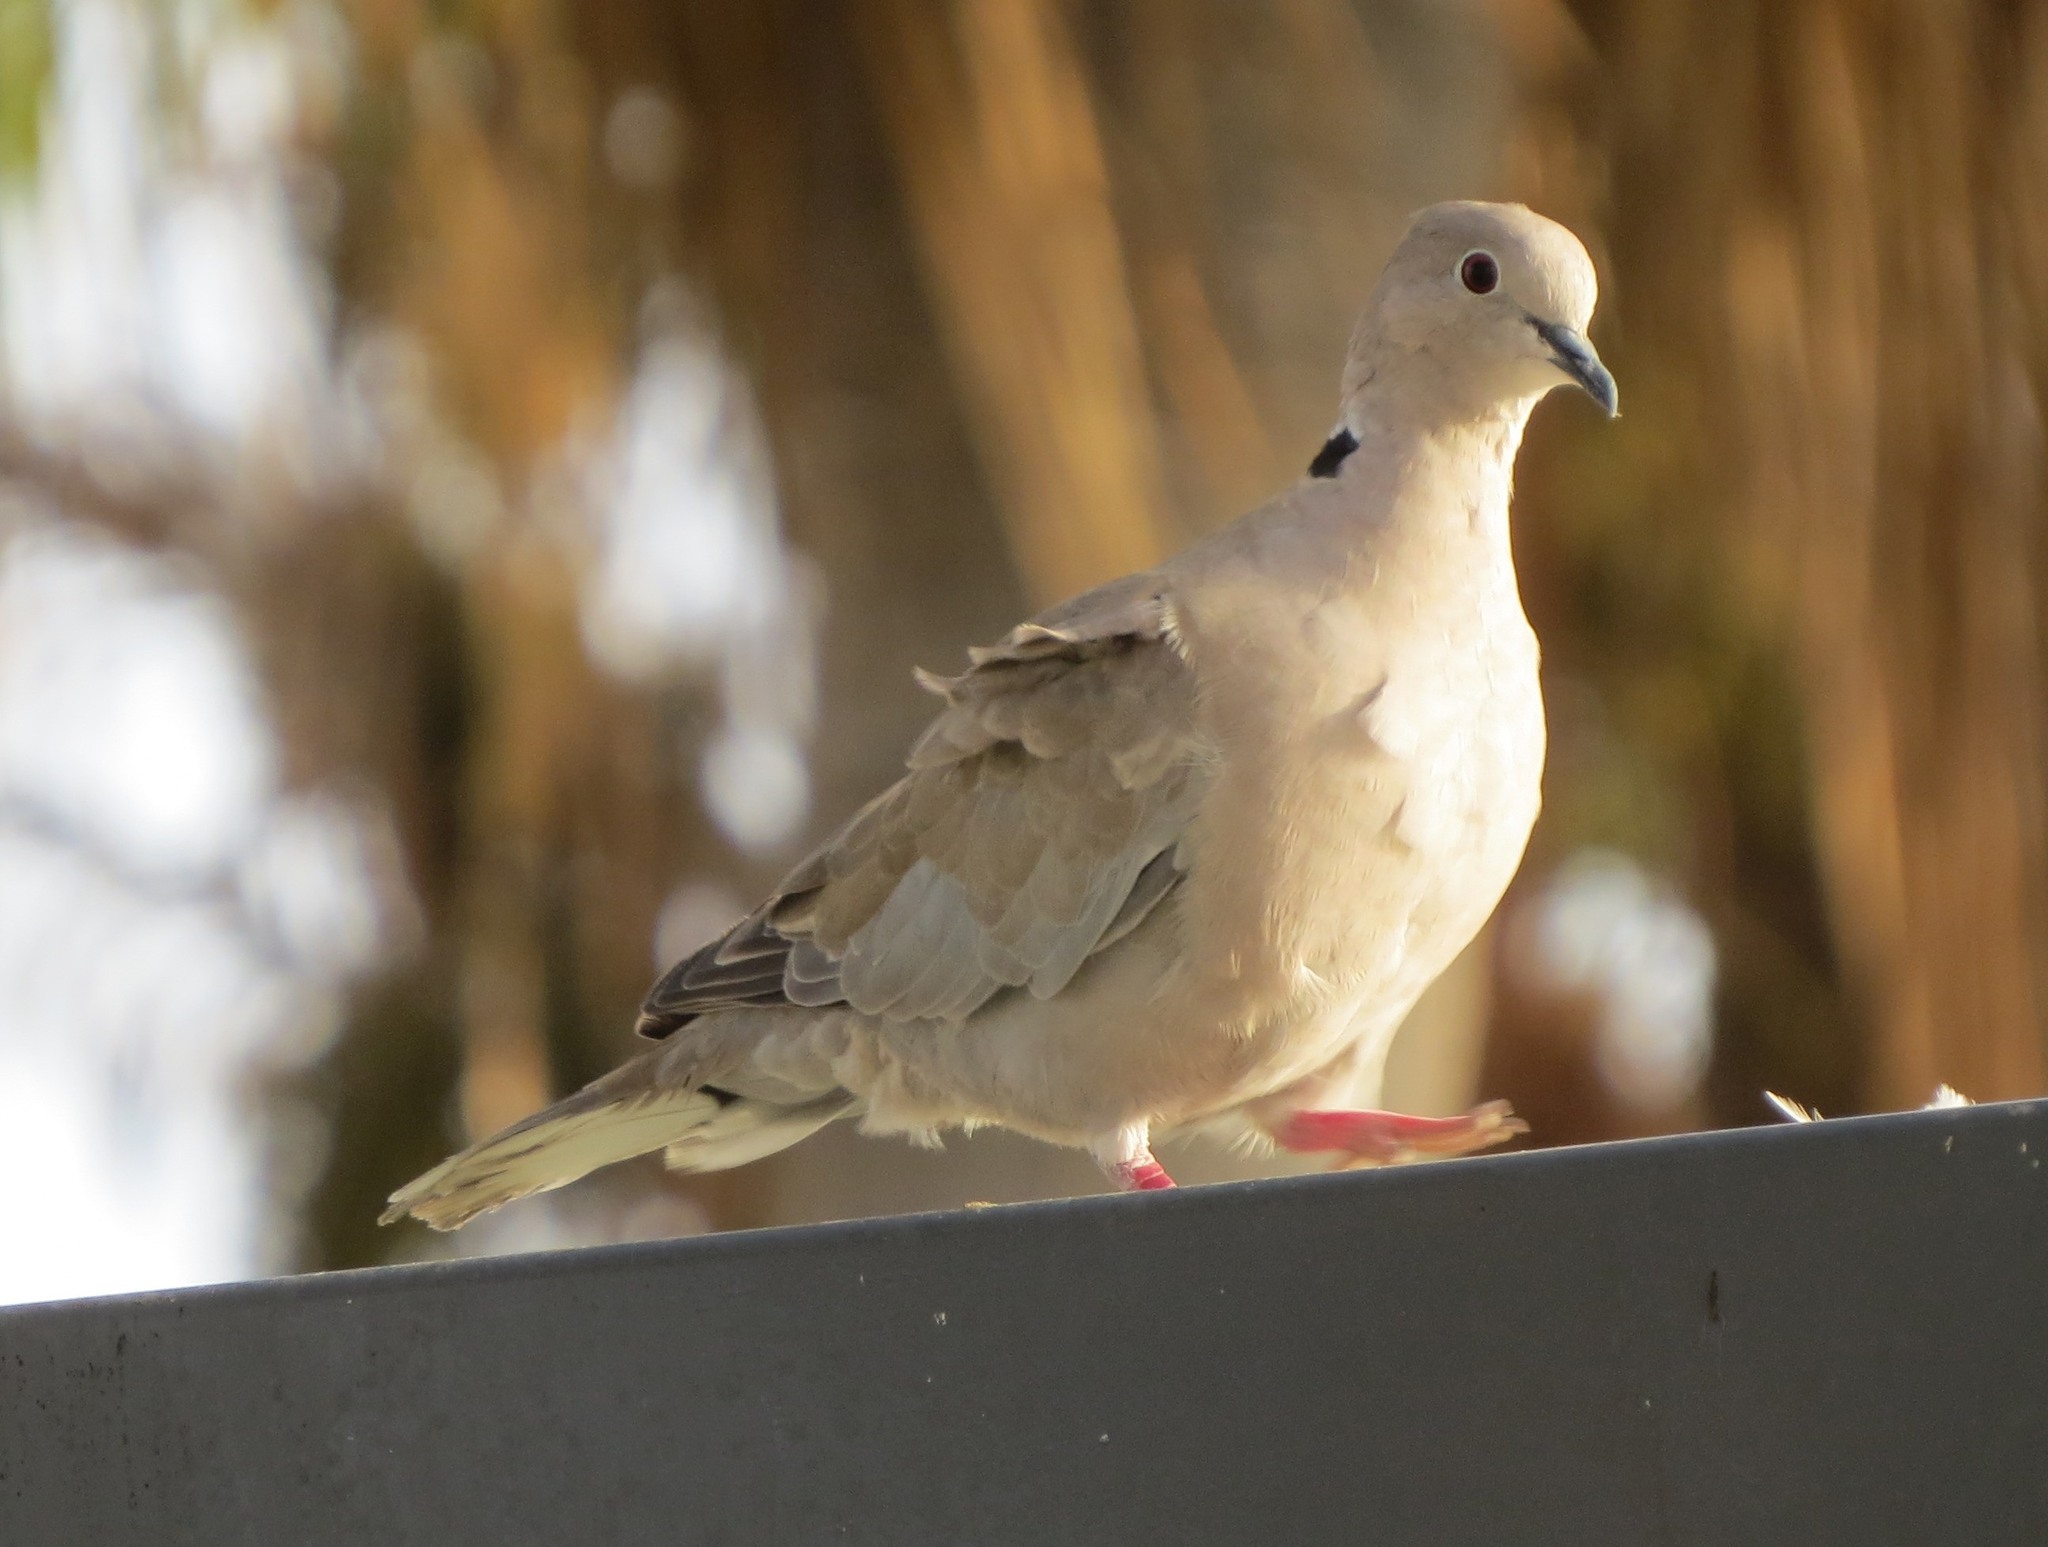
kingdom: Animalia
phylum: Chordata
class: Aves
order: Columbiformes
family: Columbidae
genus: Streptopelia
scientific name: Streptopelia decaocto
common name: Eurasian collared dove
